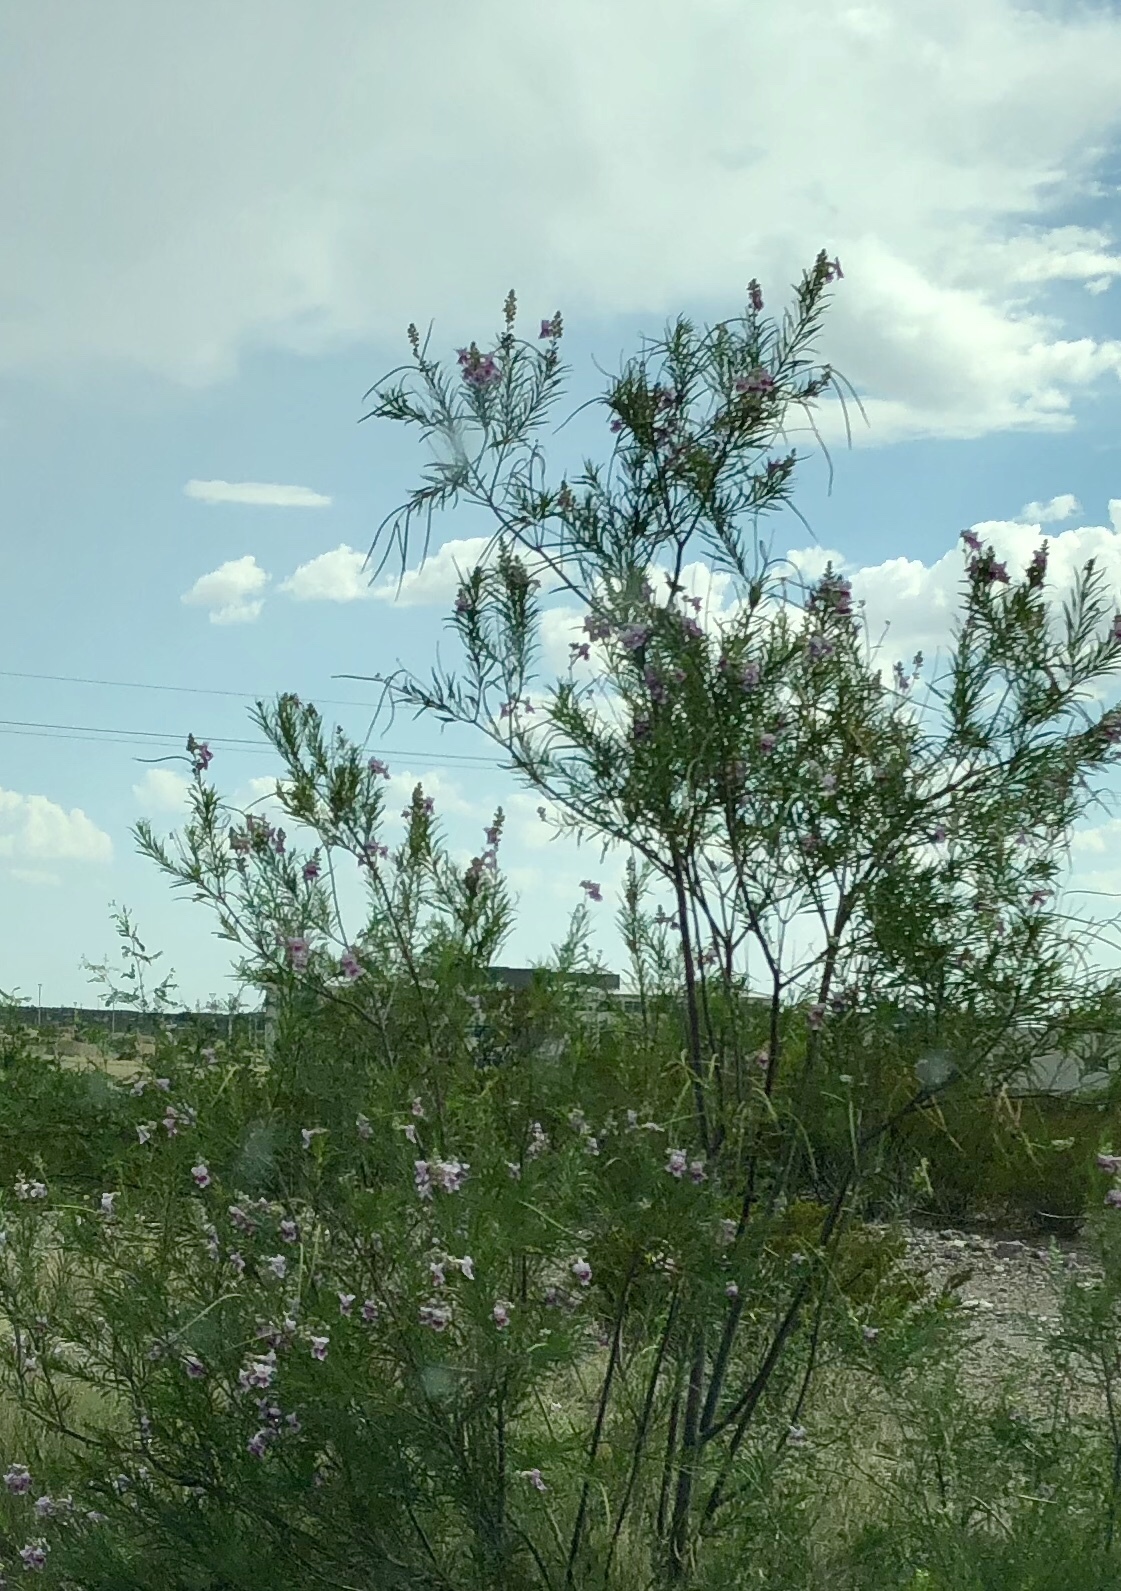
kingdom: Plantae
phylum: Tracheophyta
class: Magnoliopsida
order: Lamiales
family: Bignoniaceae
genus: Chilopsis
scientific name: Chilopsis linearis
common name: Desert-willow
